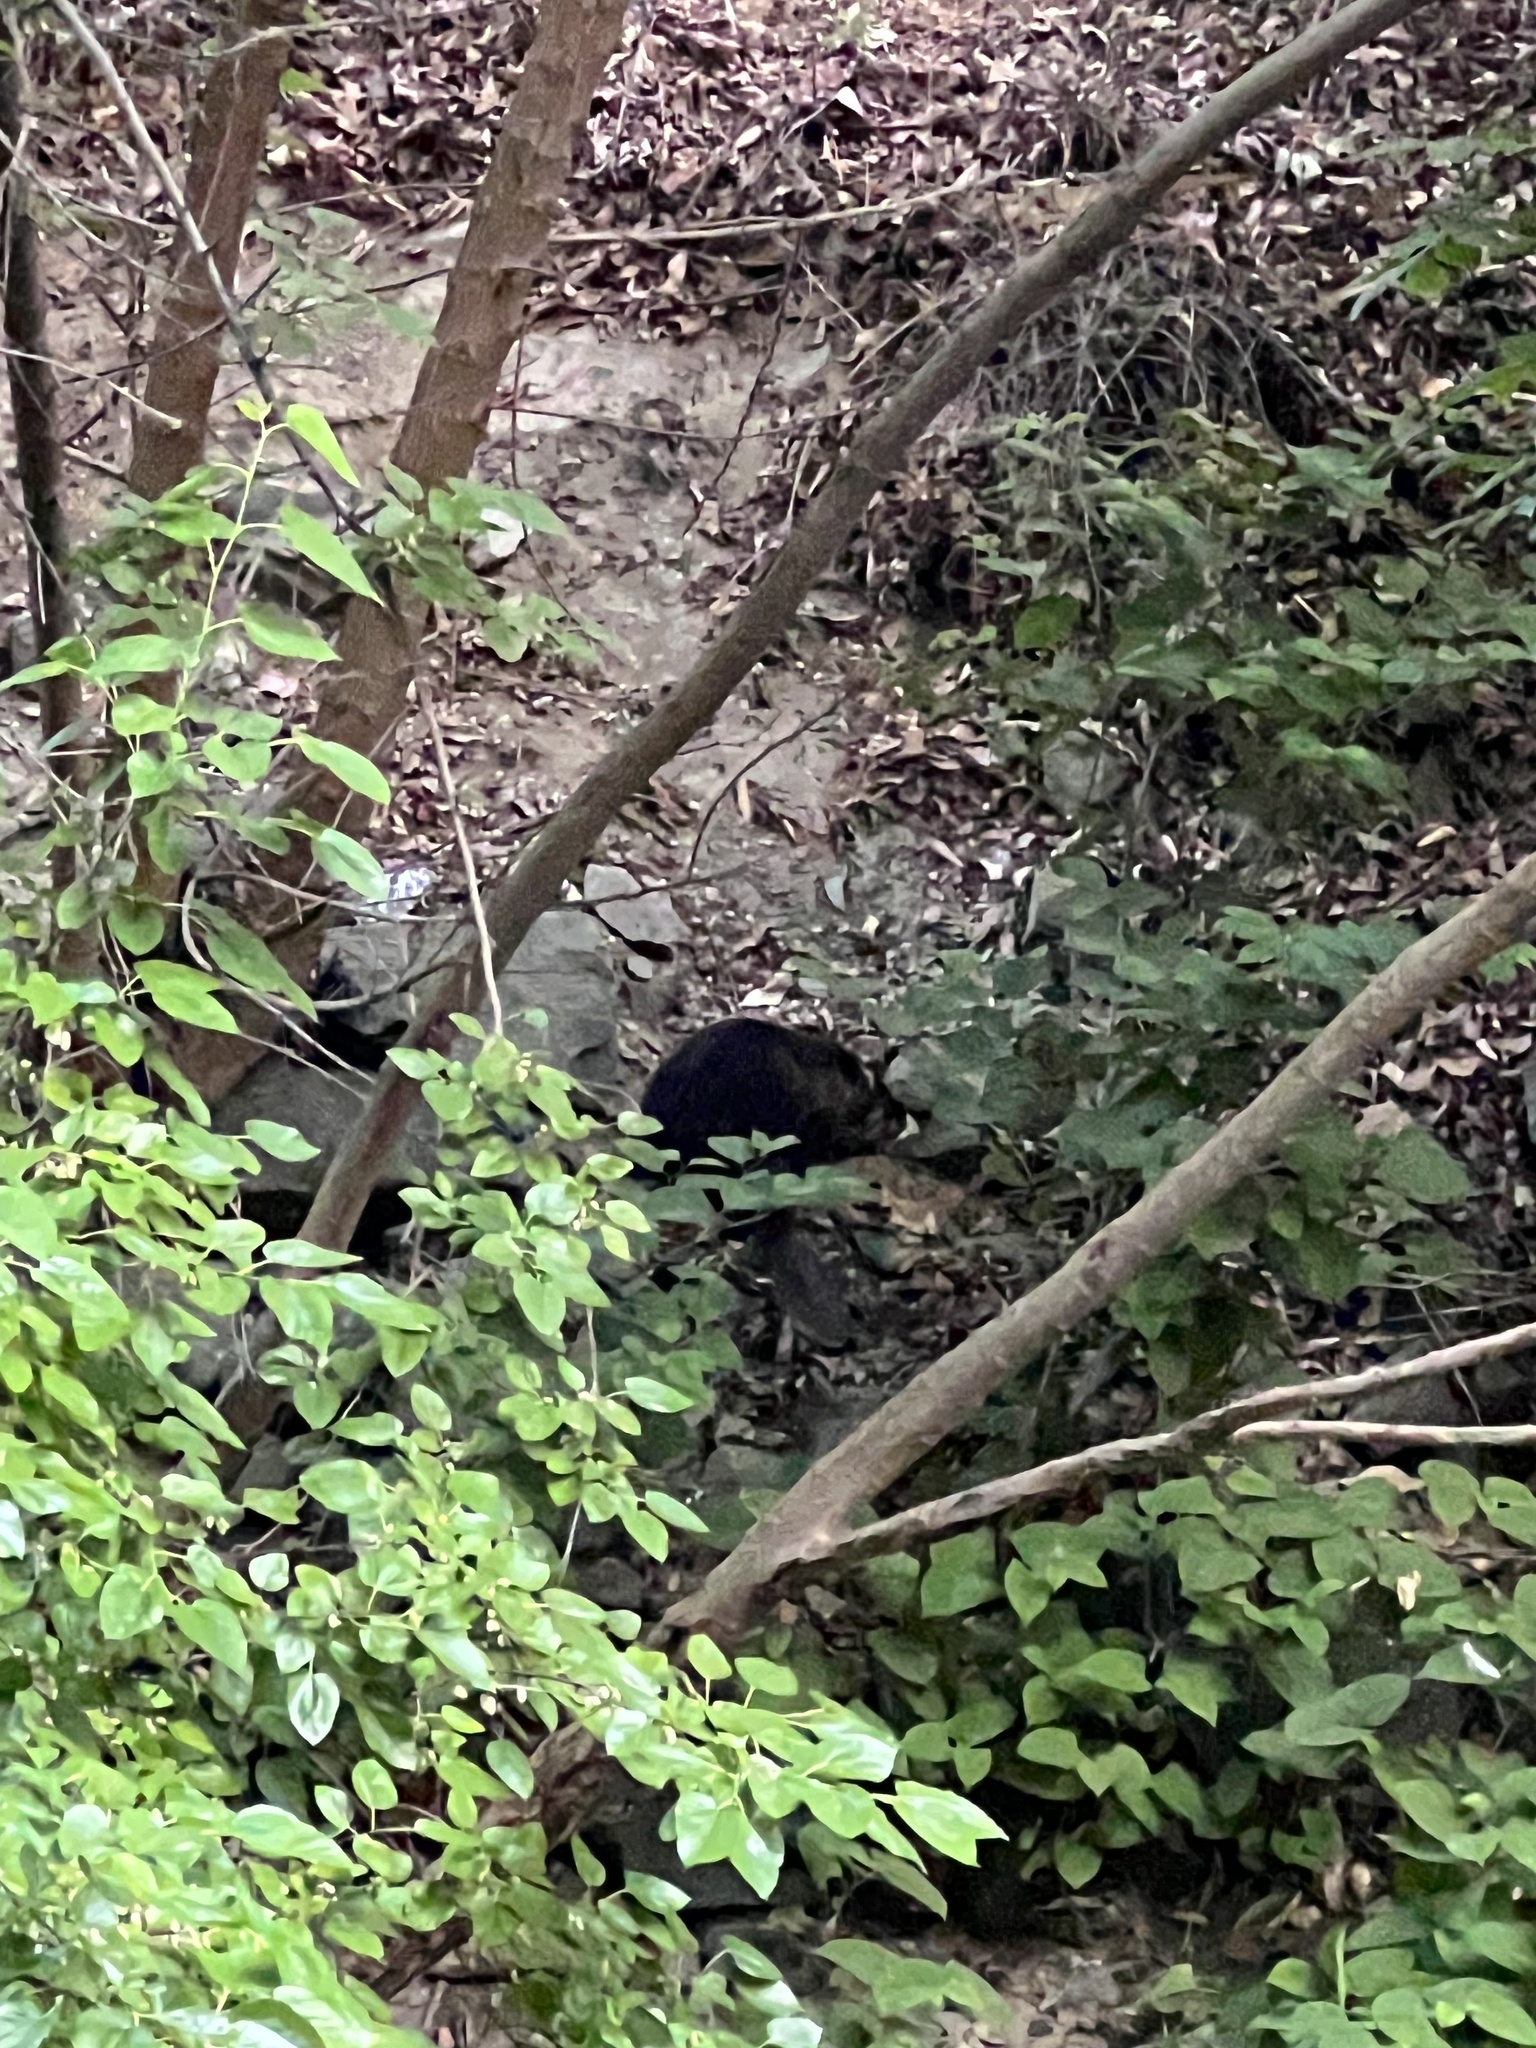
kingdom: Animalia
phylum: Chordata
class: Mammalia
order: Rodentia
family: Castoridae
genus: Castor
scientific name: Castor canadensis
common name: American beaver
